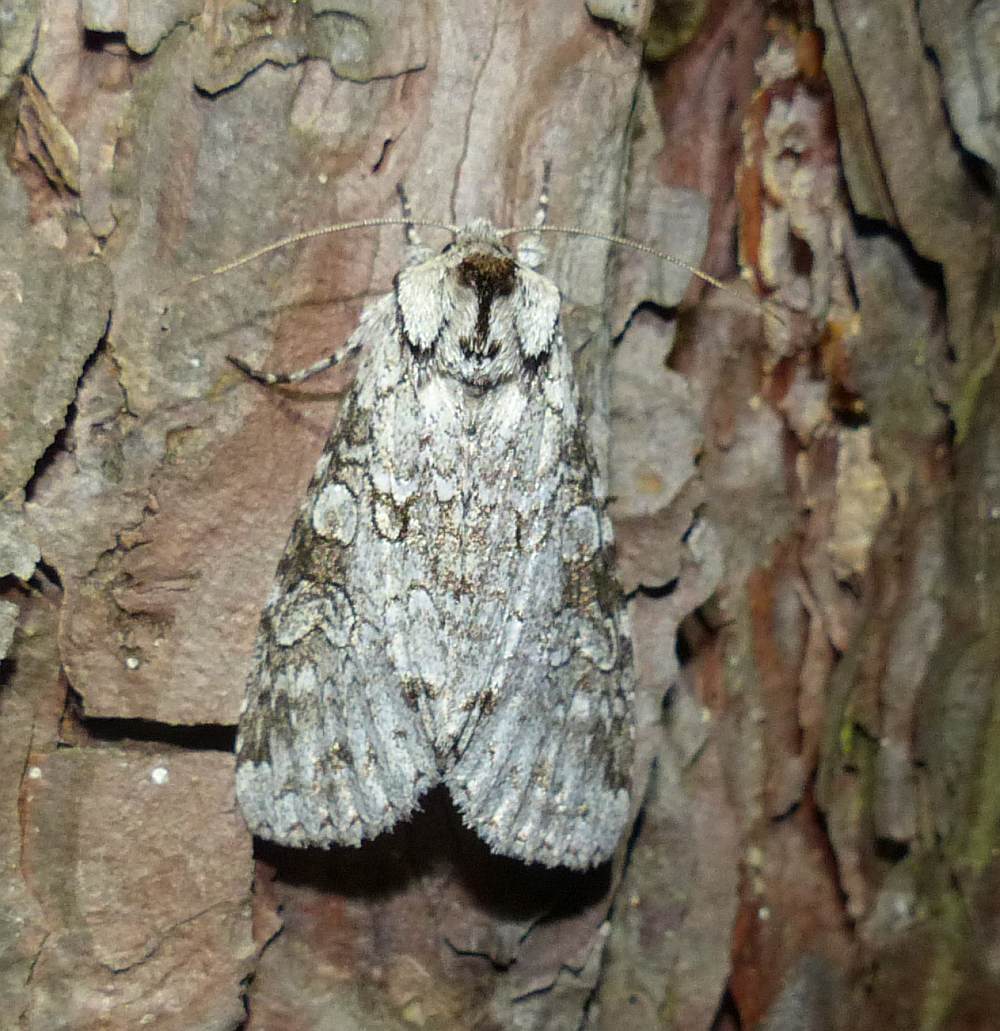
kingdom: Animalia
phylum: Arthropoda
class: Insecta
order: Lepidoptera
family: Noctuidae
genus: Polia
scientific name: Polia nimbosa
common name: Stormy arches
